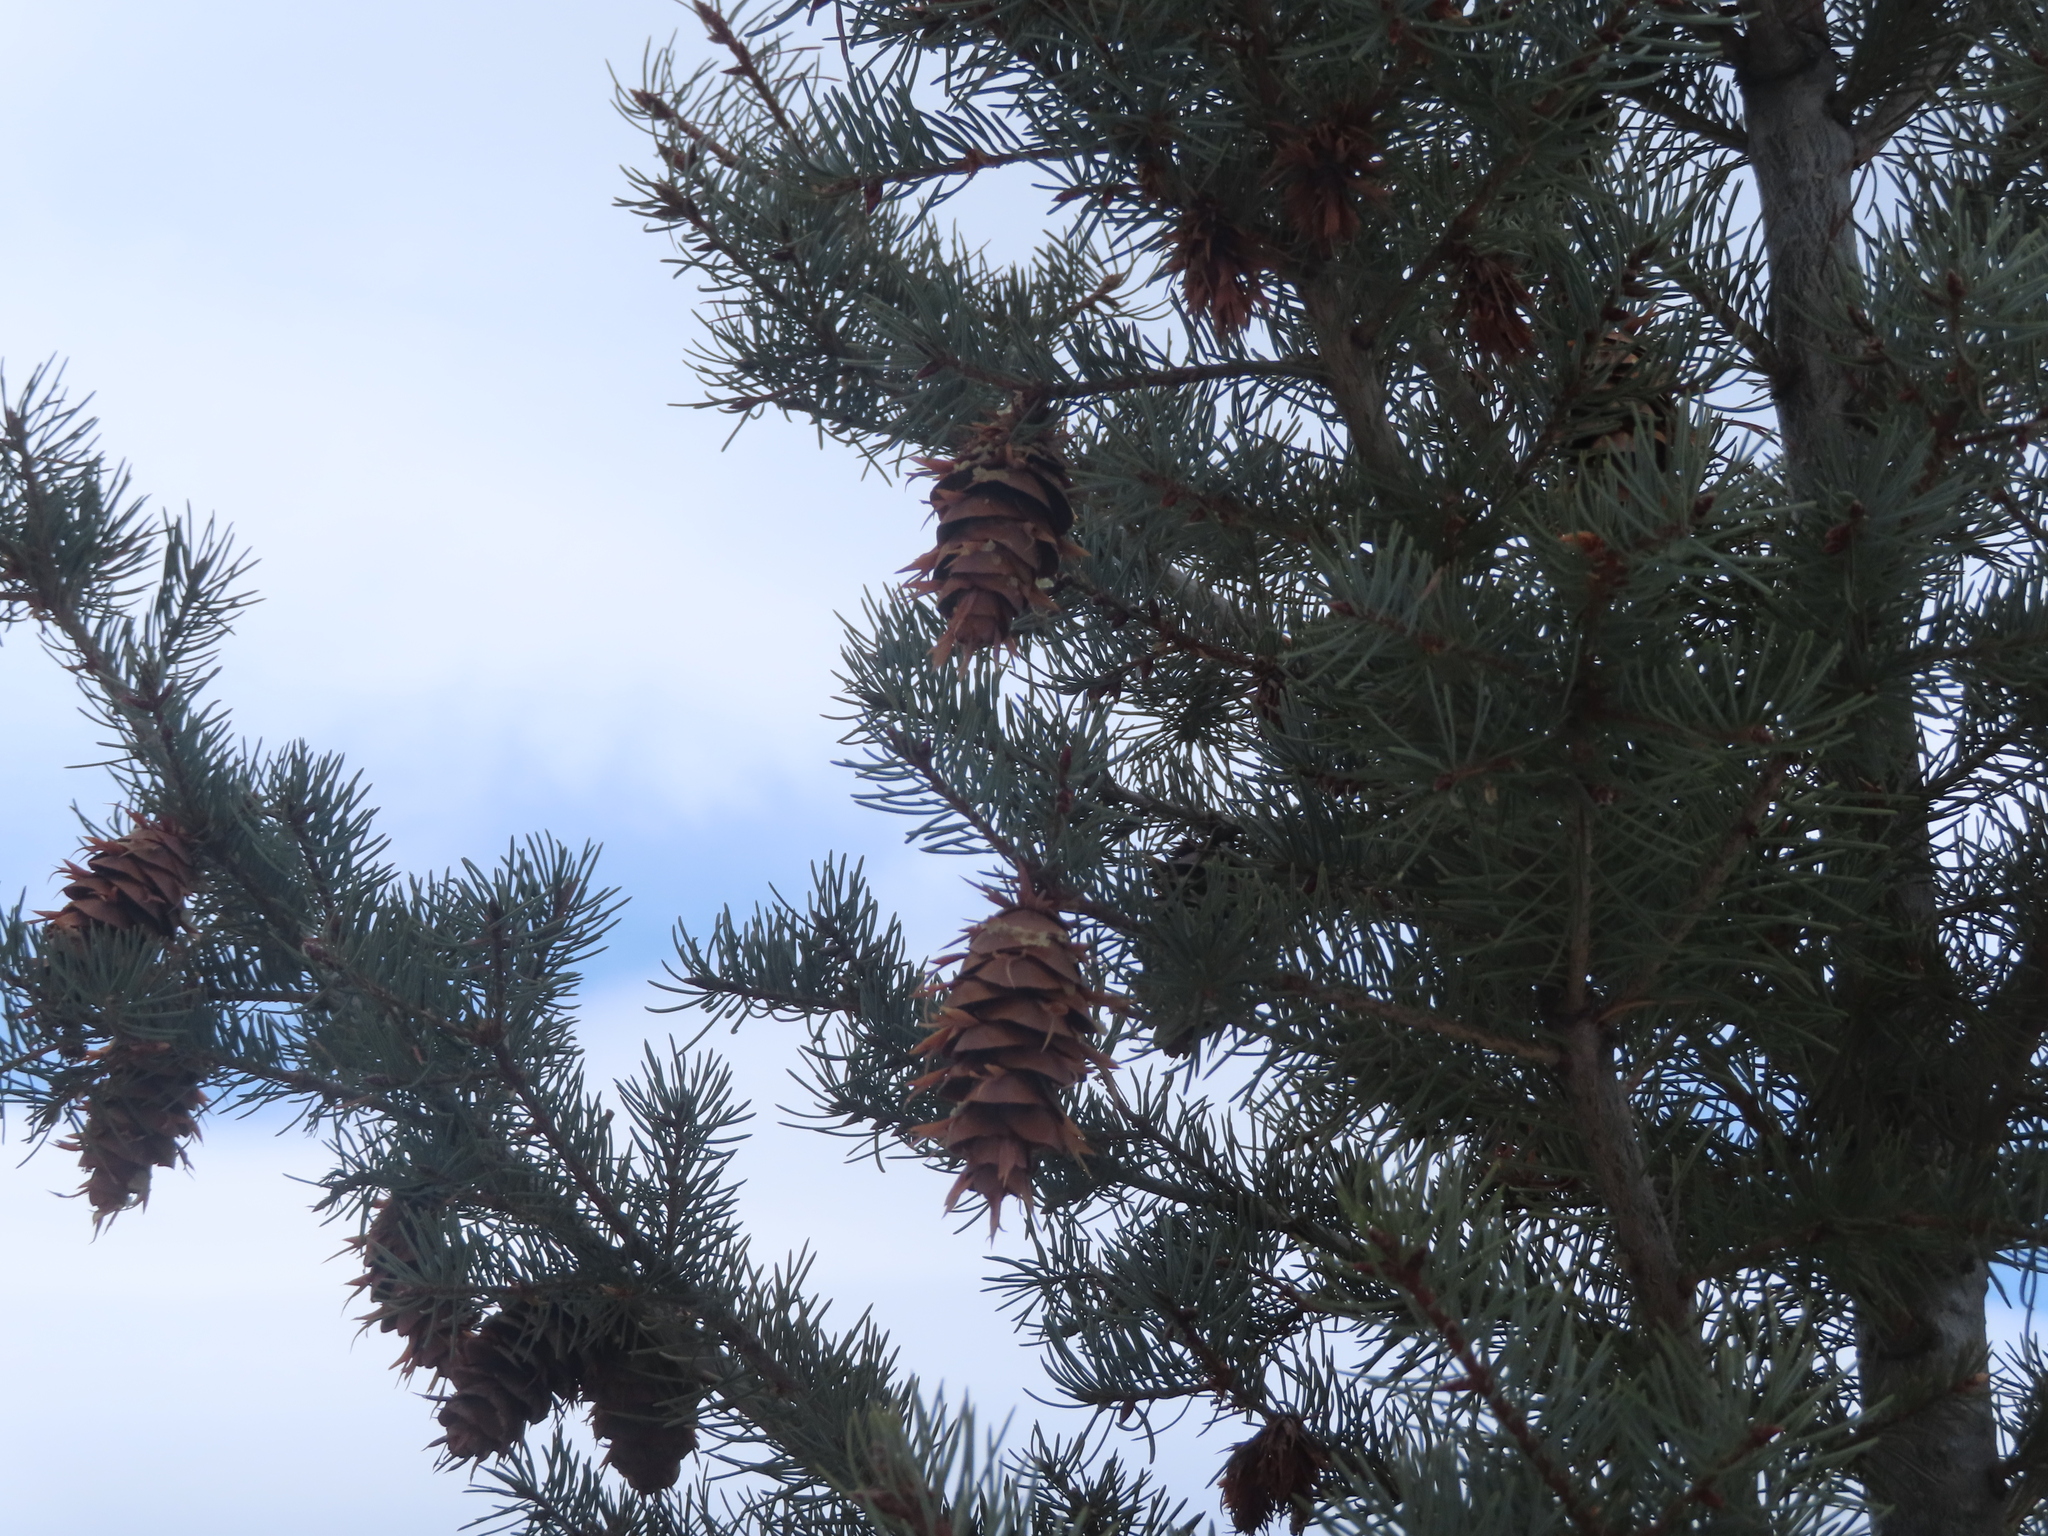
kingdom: Plantae
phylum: Tracheophyta
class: Pinopsida
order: Pinales
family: Pinaceae
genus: Pseudotsuga
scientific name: Pseudotsuga menziesii
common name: Douglas fir
